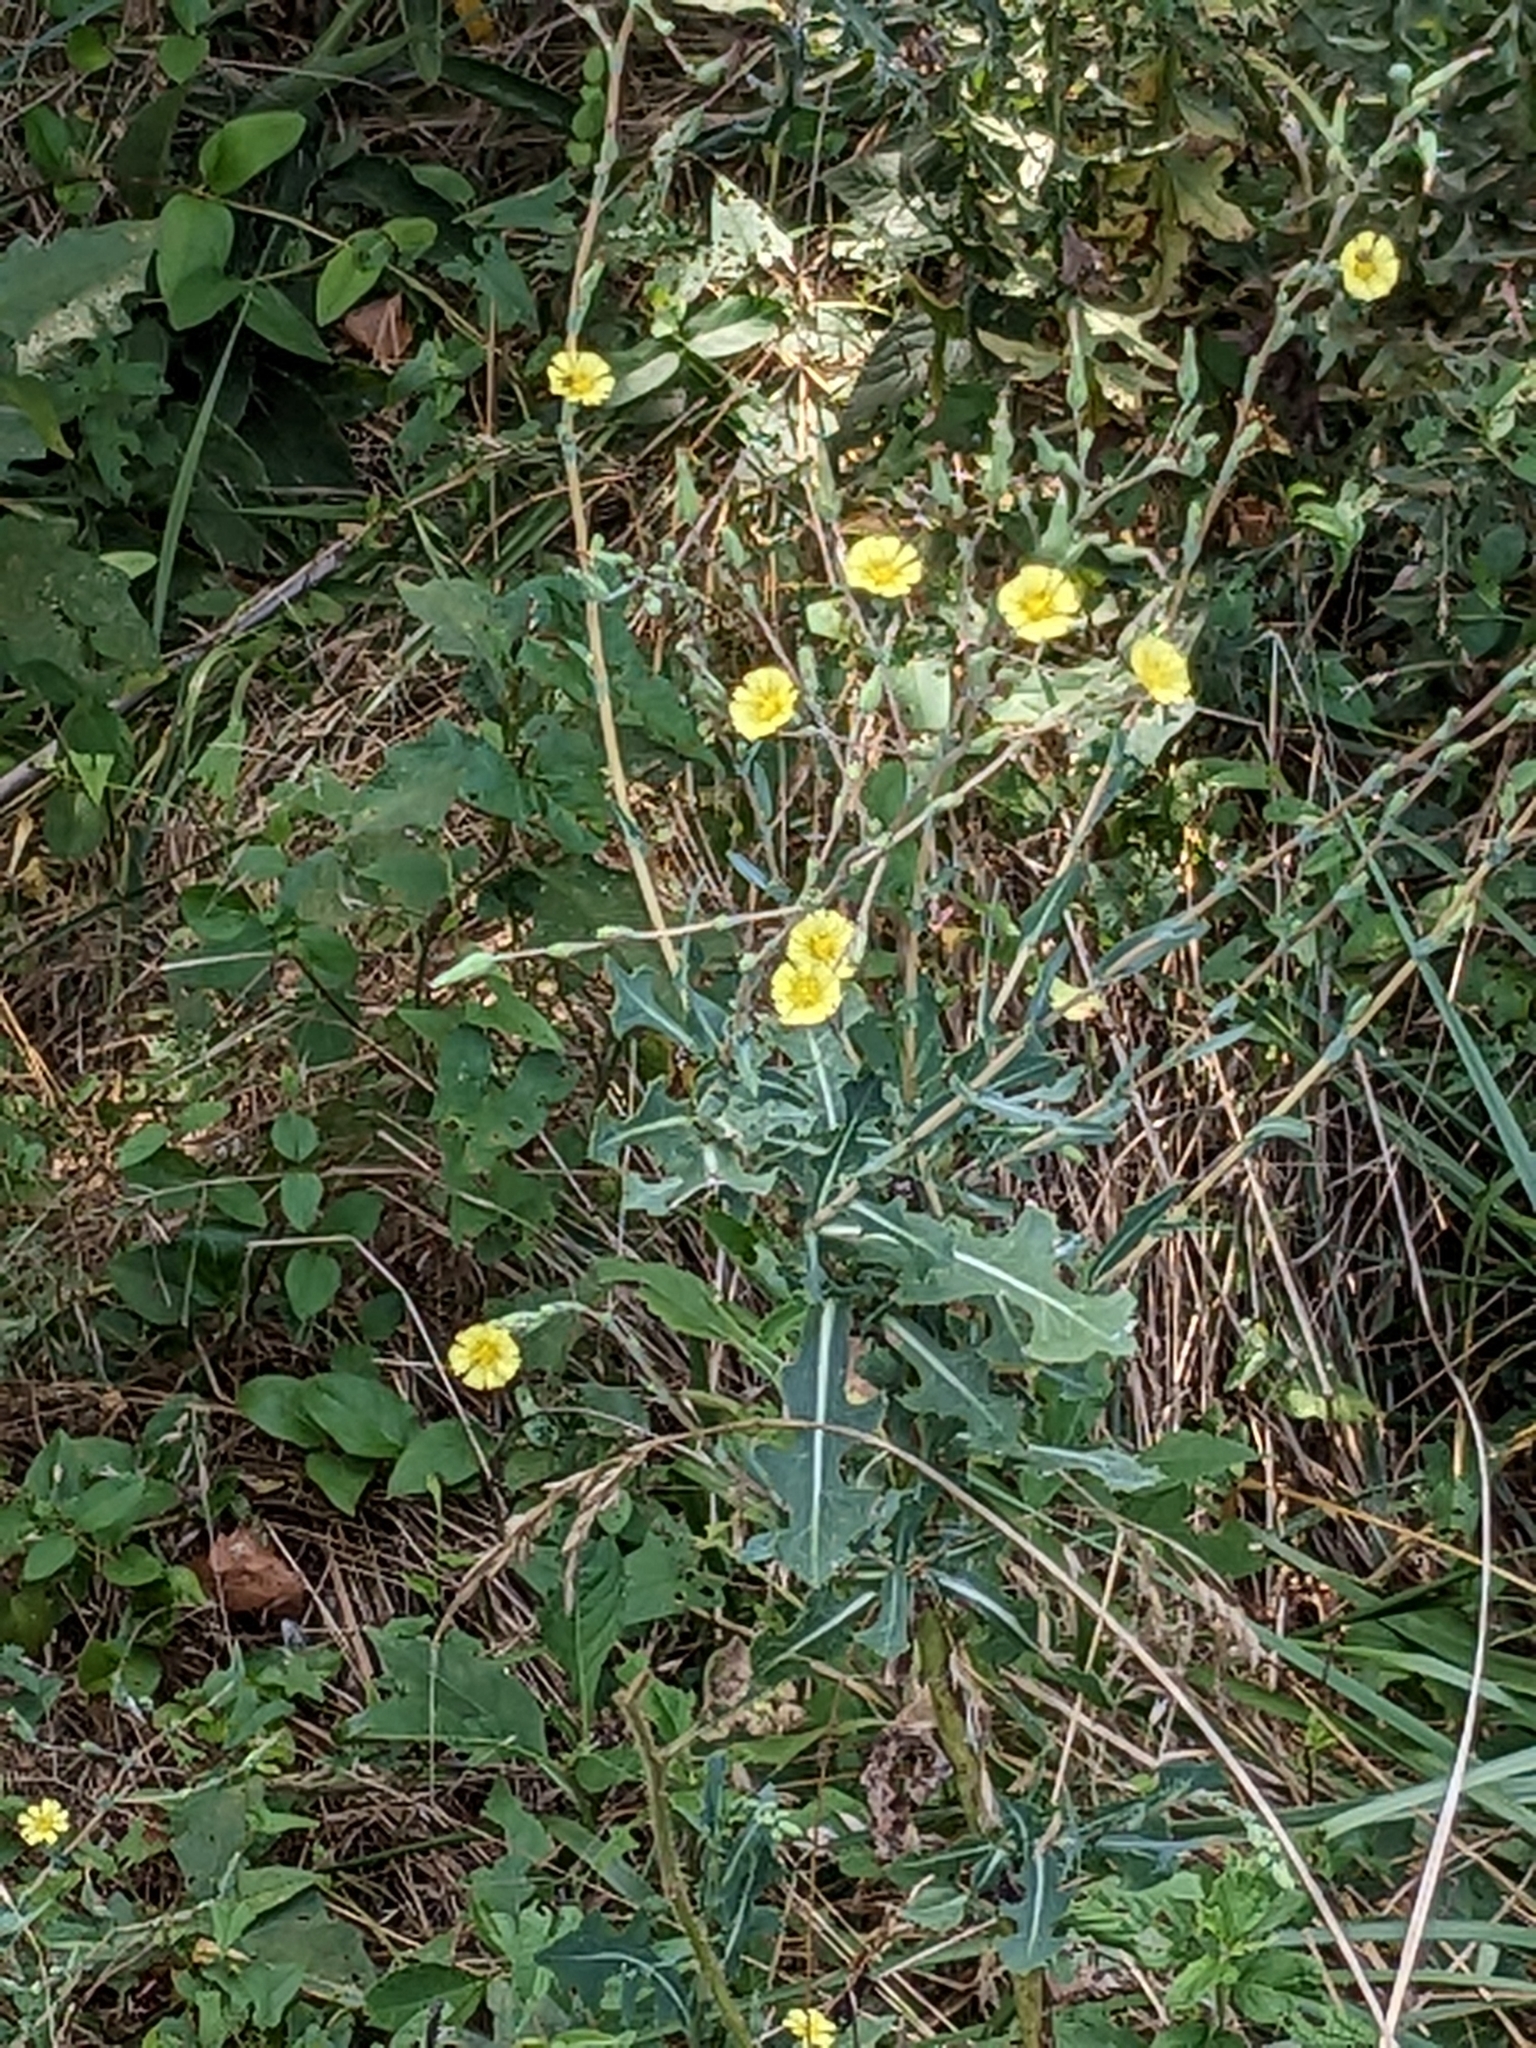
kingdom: Plantae
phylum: Tracheophyta
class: Magnoliopsida
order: Asterales
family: Asteraceae
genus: Lactuca
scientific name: Lactuca serriola
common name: Prickly lettuce
